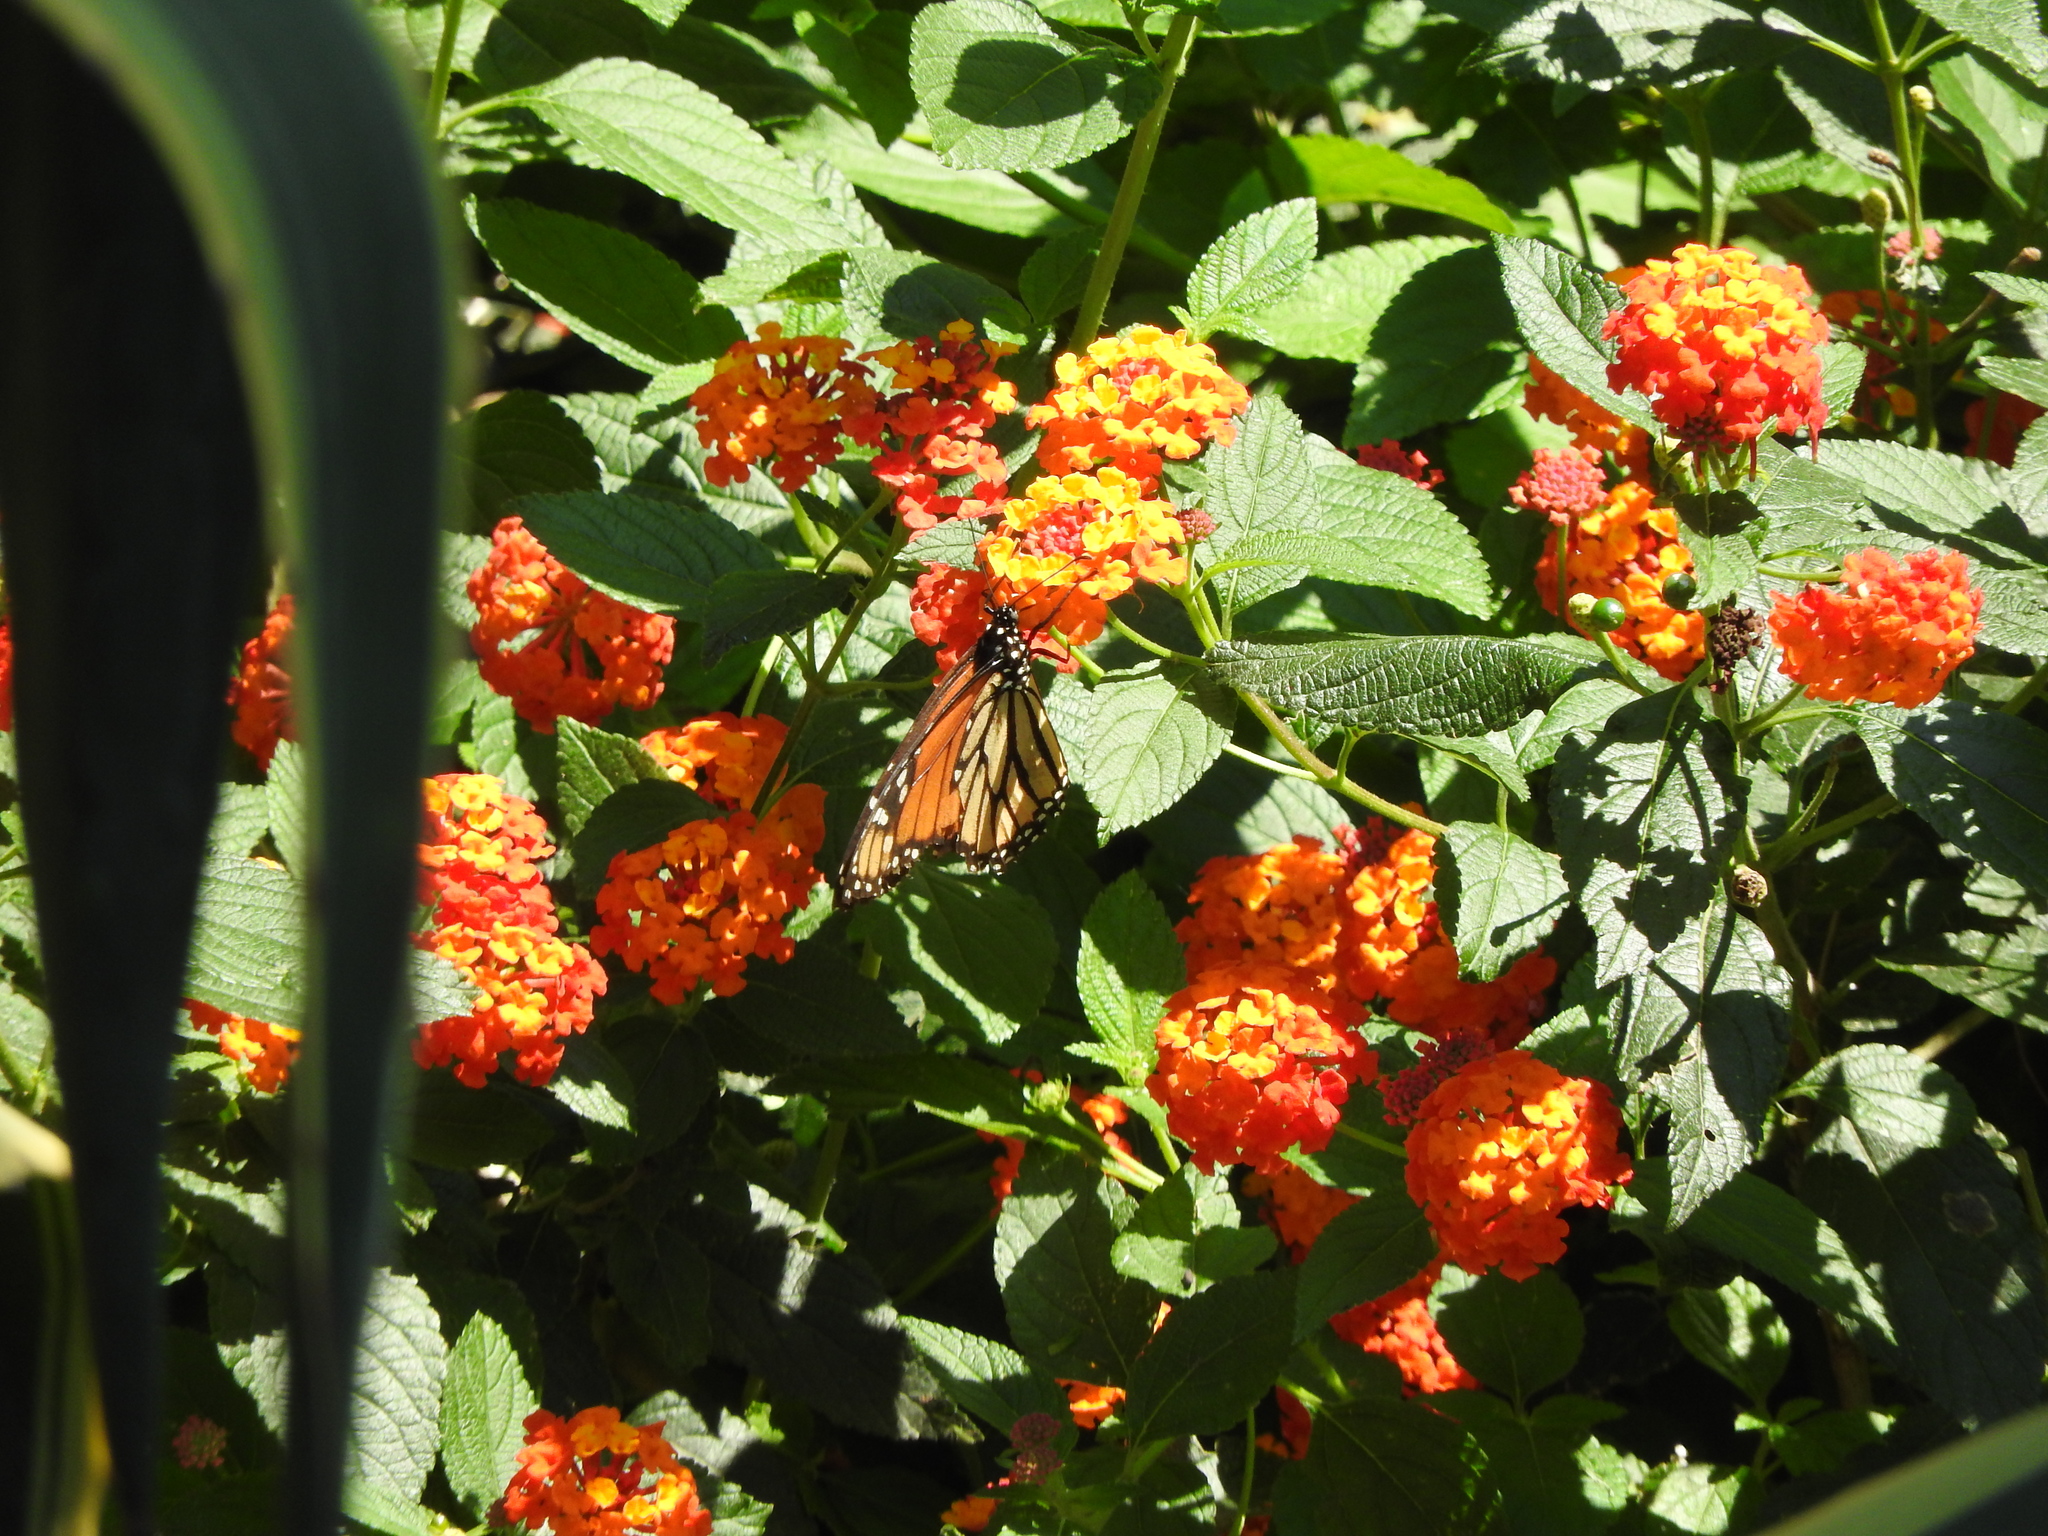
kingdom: Animalia
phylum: Arthropoda
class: Insecta
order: Lepidoptera
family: Nymphalidae
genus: Danaus
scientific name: Danaus plexippus
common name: Monarch
